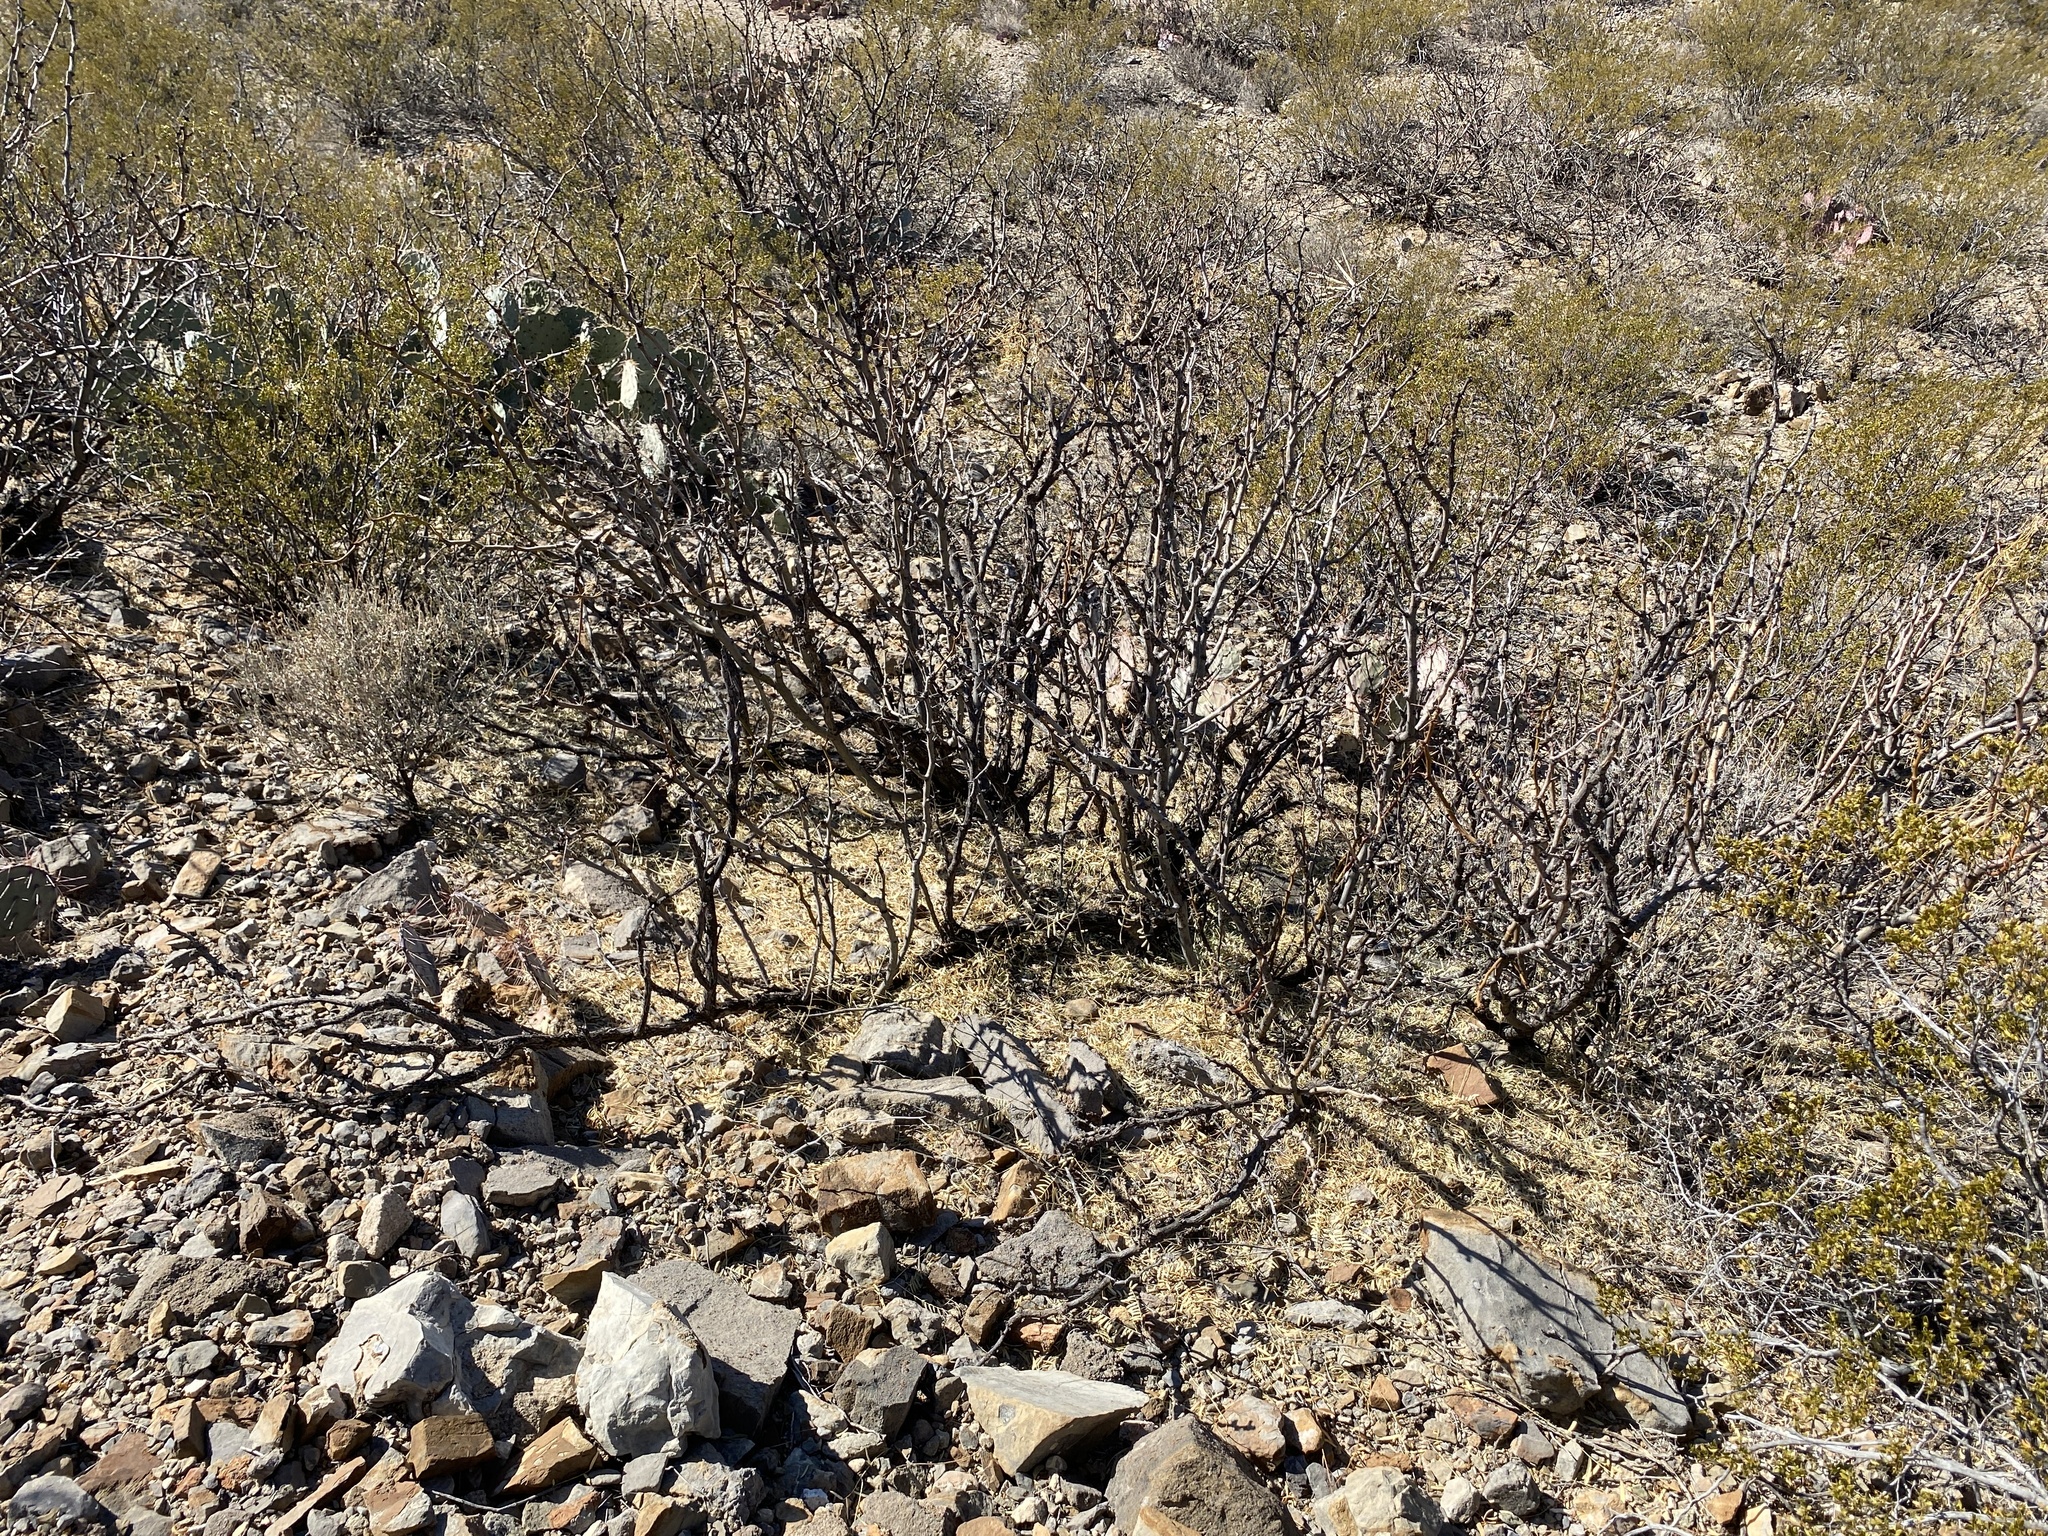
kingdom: Plantae
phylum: Tracheophyta
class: Magnoliopsida
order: Fabales
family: Fabaceae
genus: Prosopis
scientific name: Prosopis glandulosa
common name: Honey mesquite
